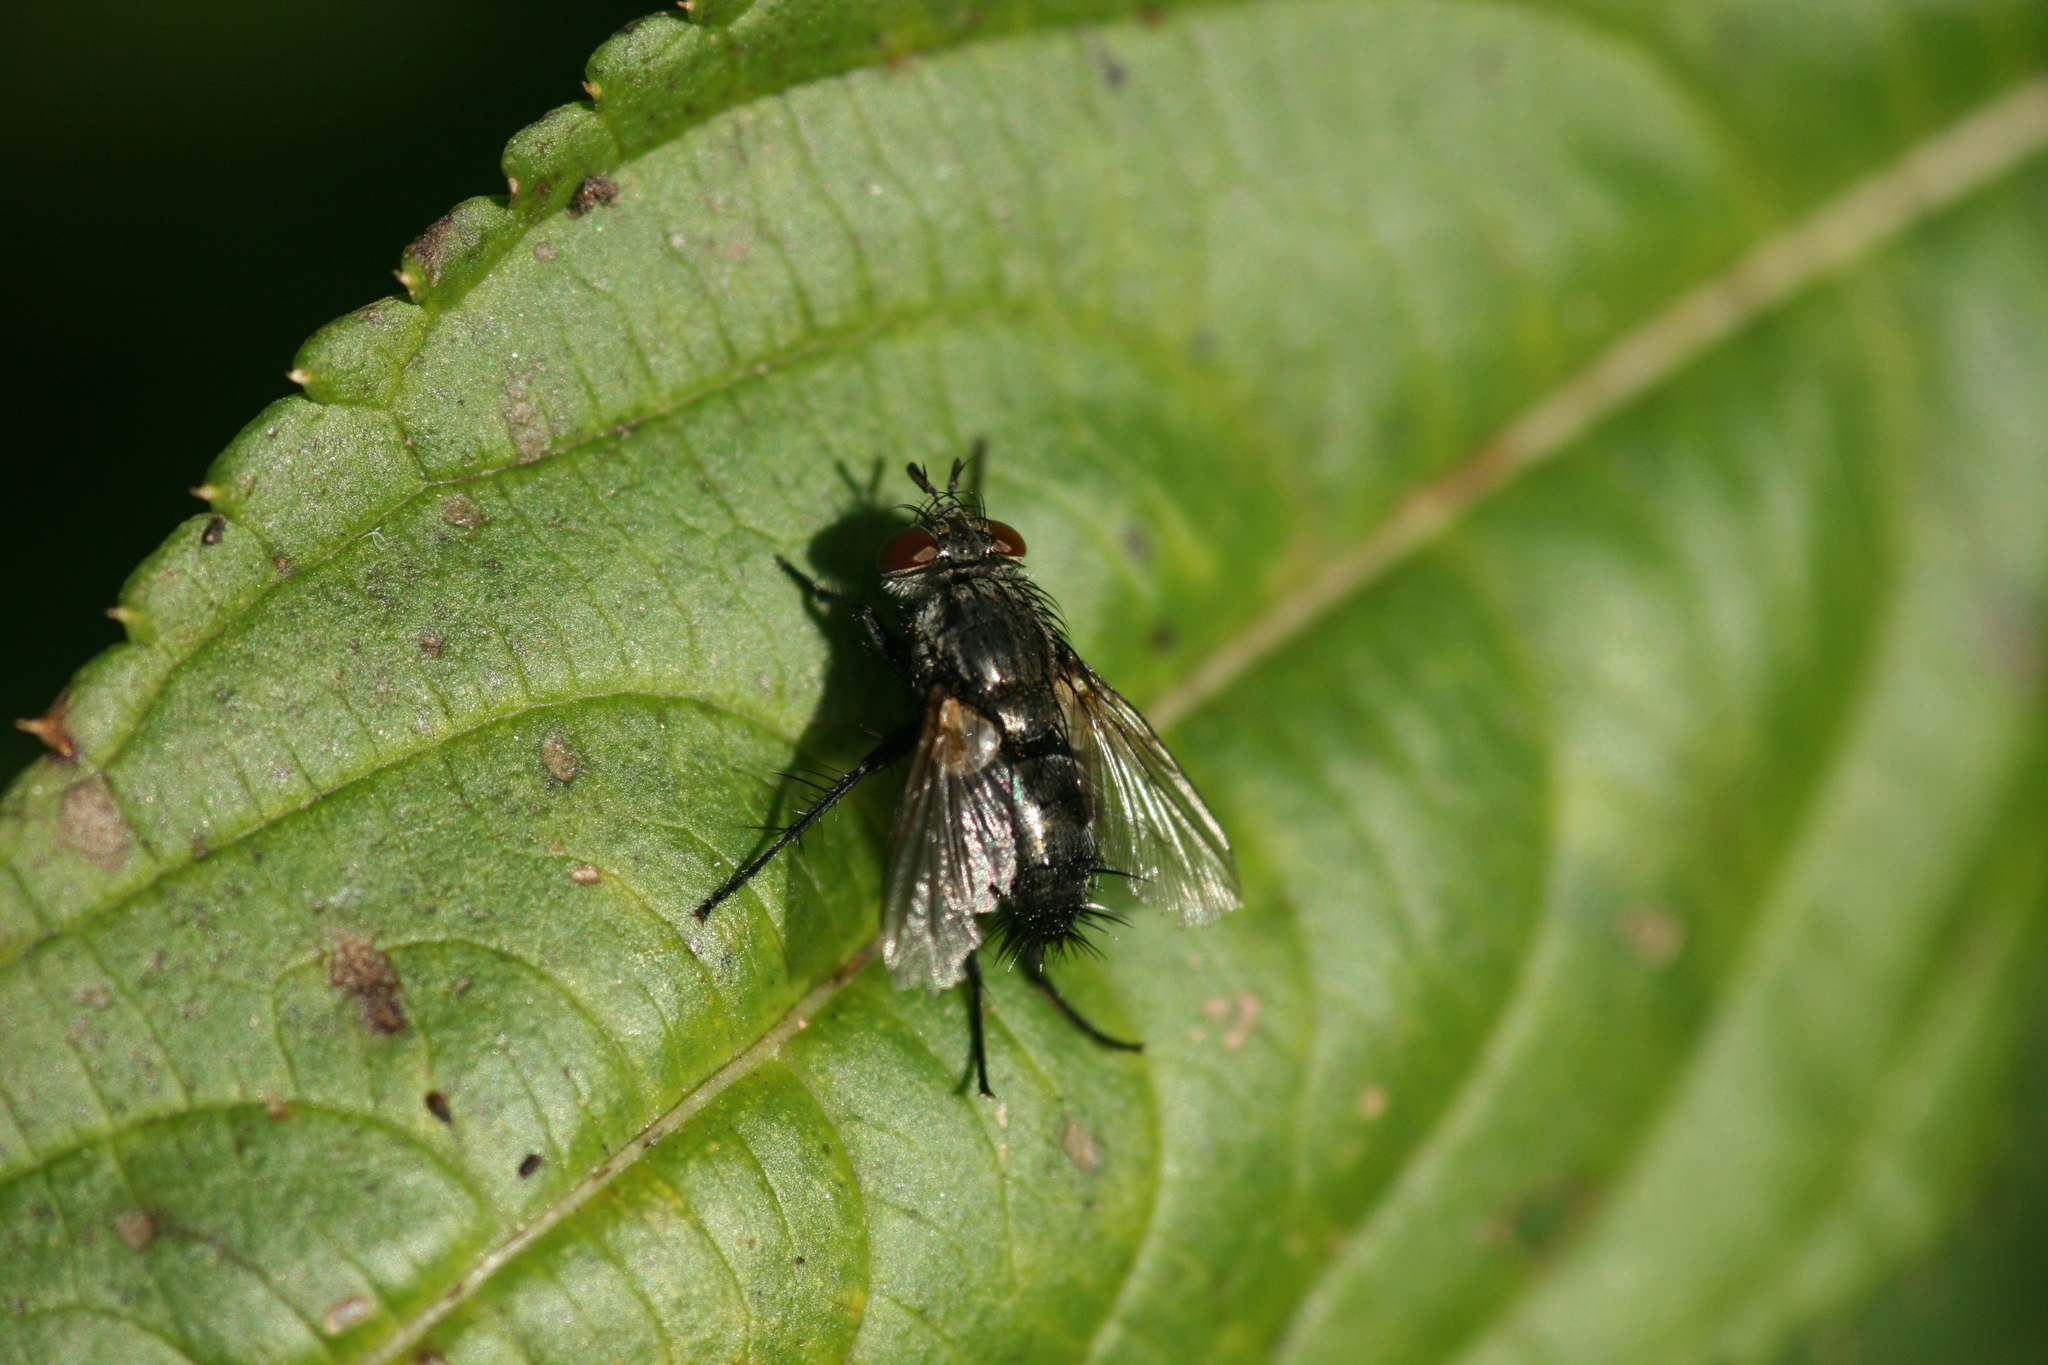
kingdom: Animalia
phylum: Arthropoda
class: Insecta
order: Diptera
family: Tachinidae
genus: Voria
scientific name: Voria ruralis
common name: Parasitic fly
